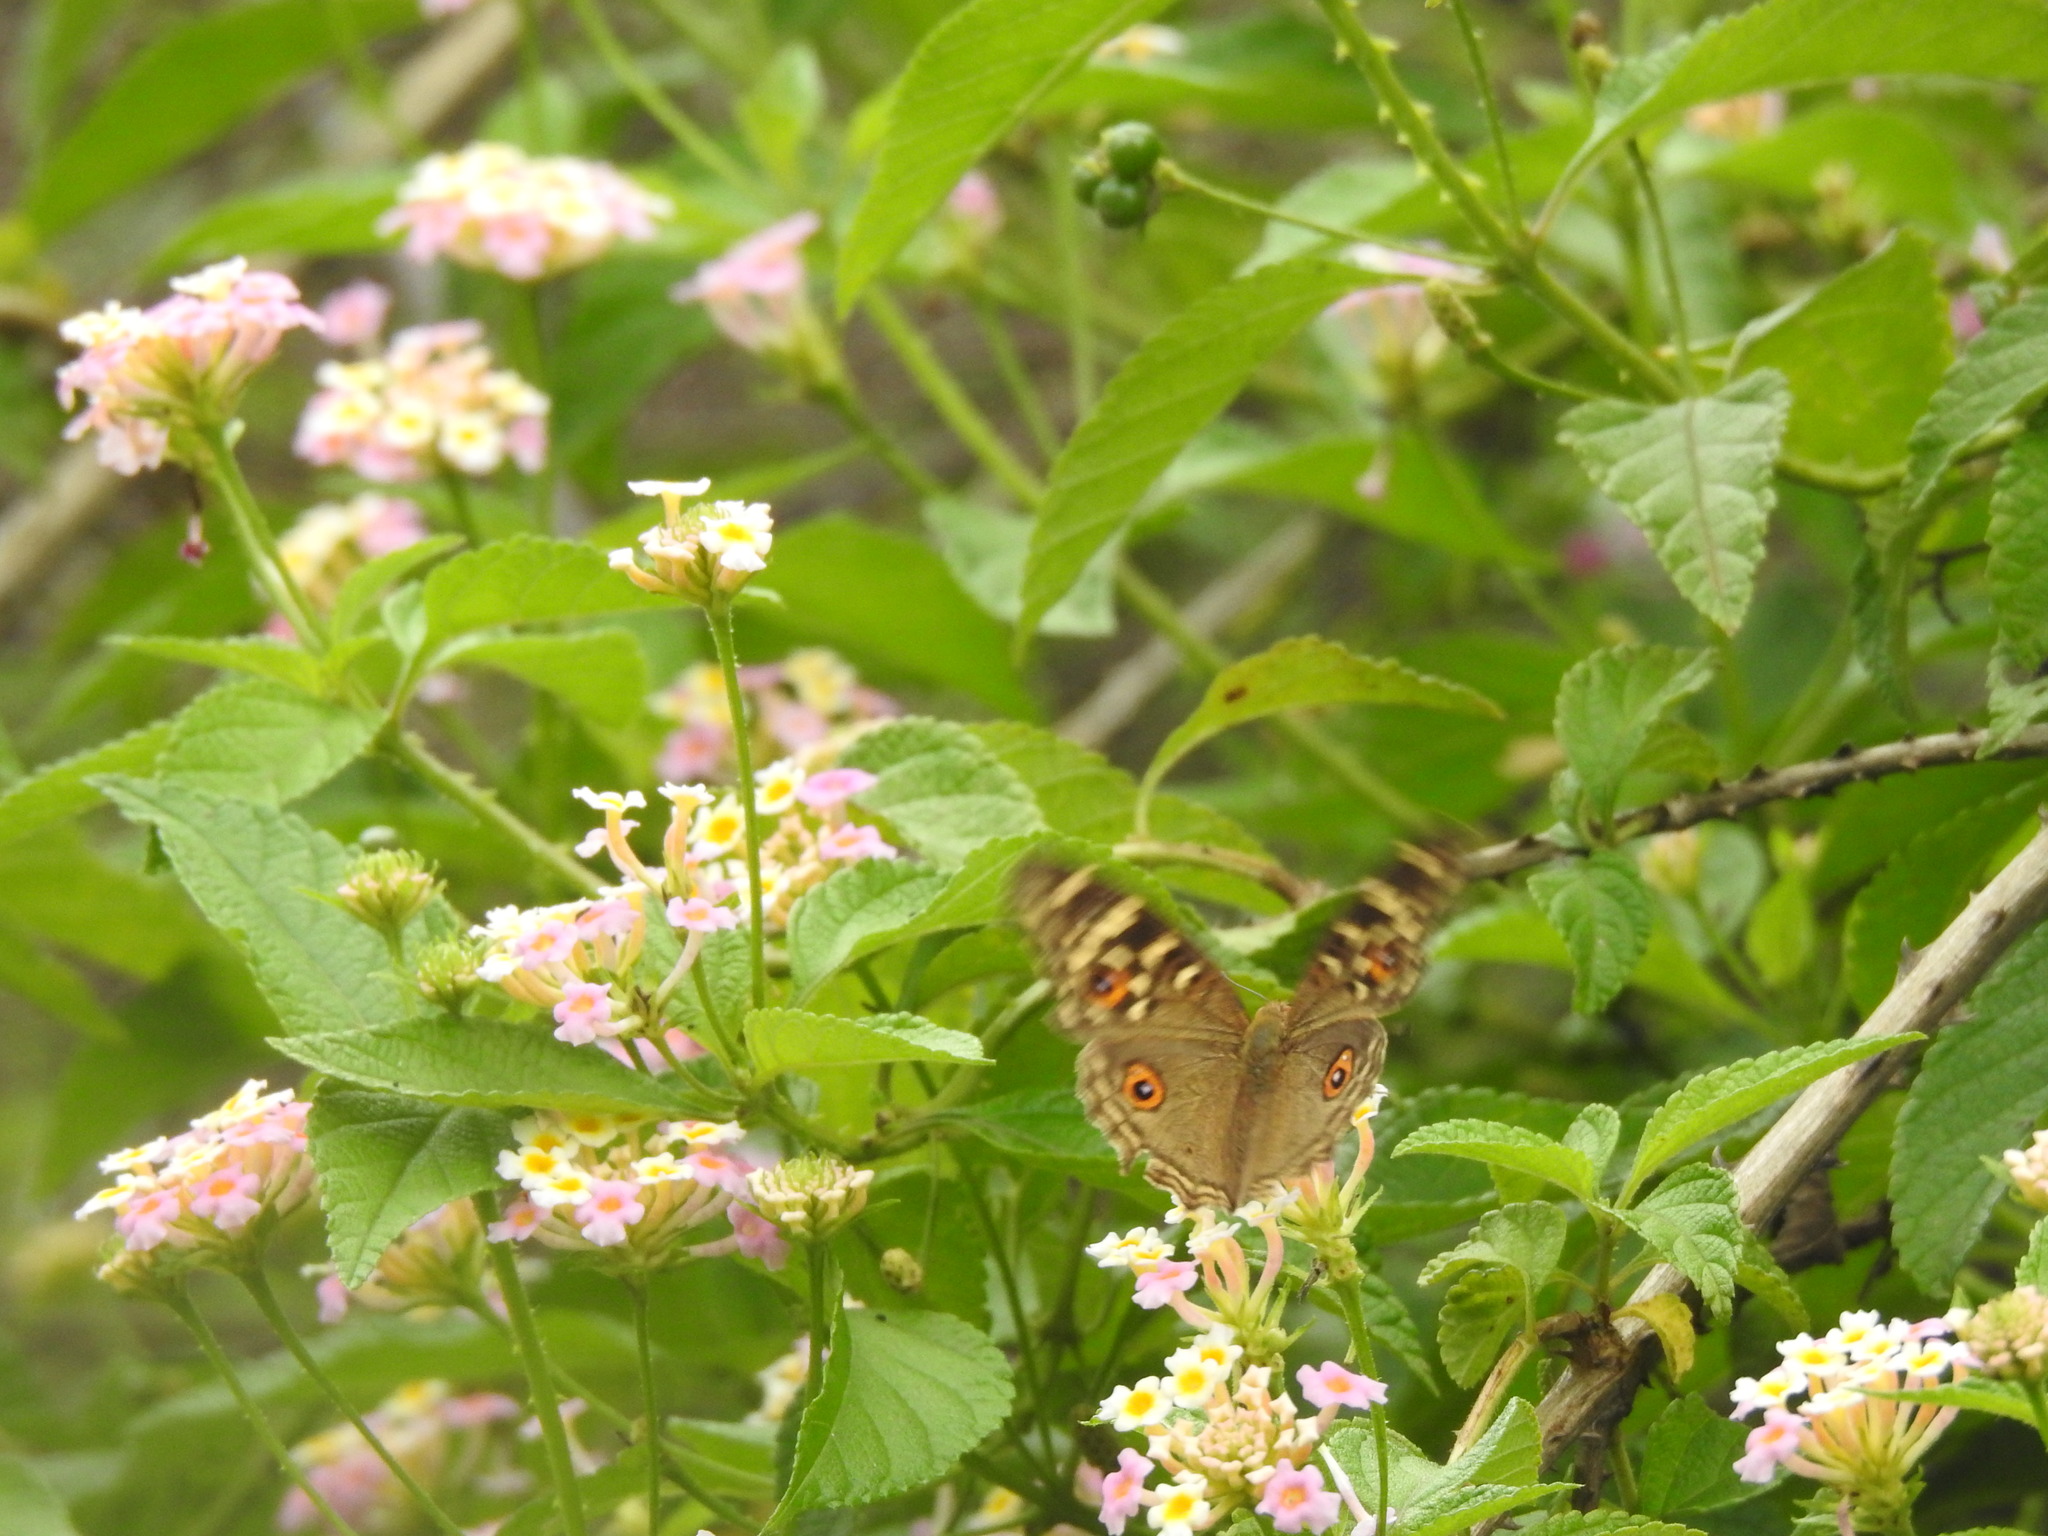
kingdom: Animalia
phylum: Arthropoda
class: Insecta
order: Lepidoptera
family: Nymphalidae
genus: Junonia
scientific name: Junonia lemonias
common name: Lemon pansy
